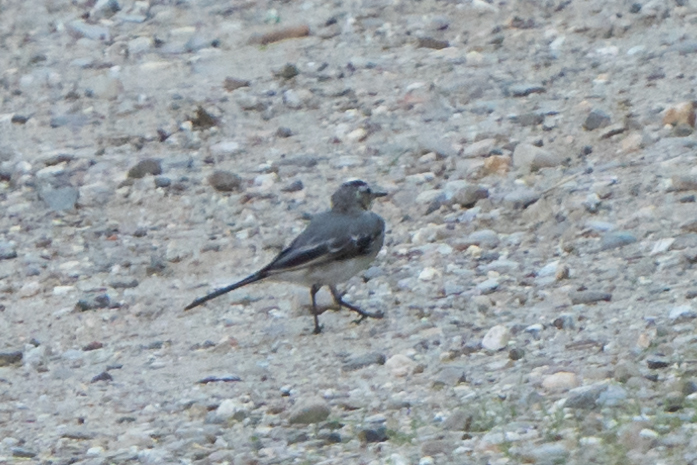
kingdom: Animalia
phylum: Chordata
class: Aves
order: Passeriformes
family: Motacillidae
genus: Motacilla
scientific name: Motacilla alba
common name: White wagtail
